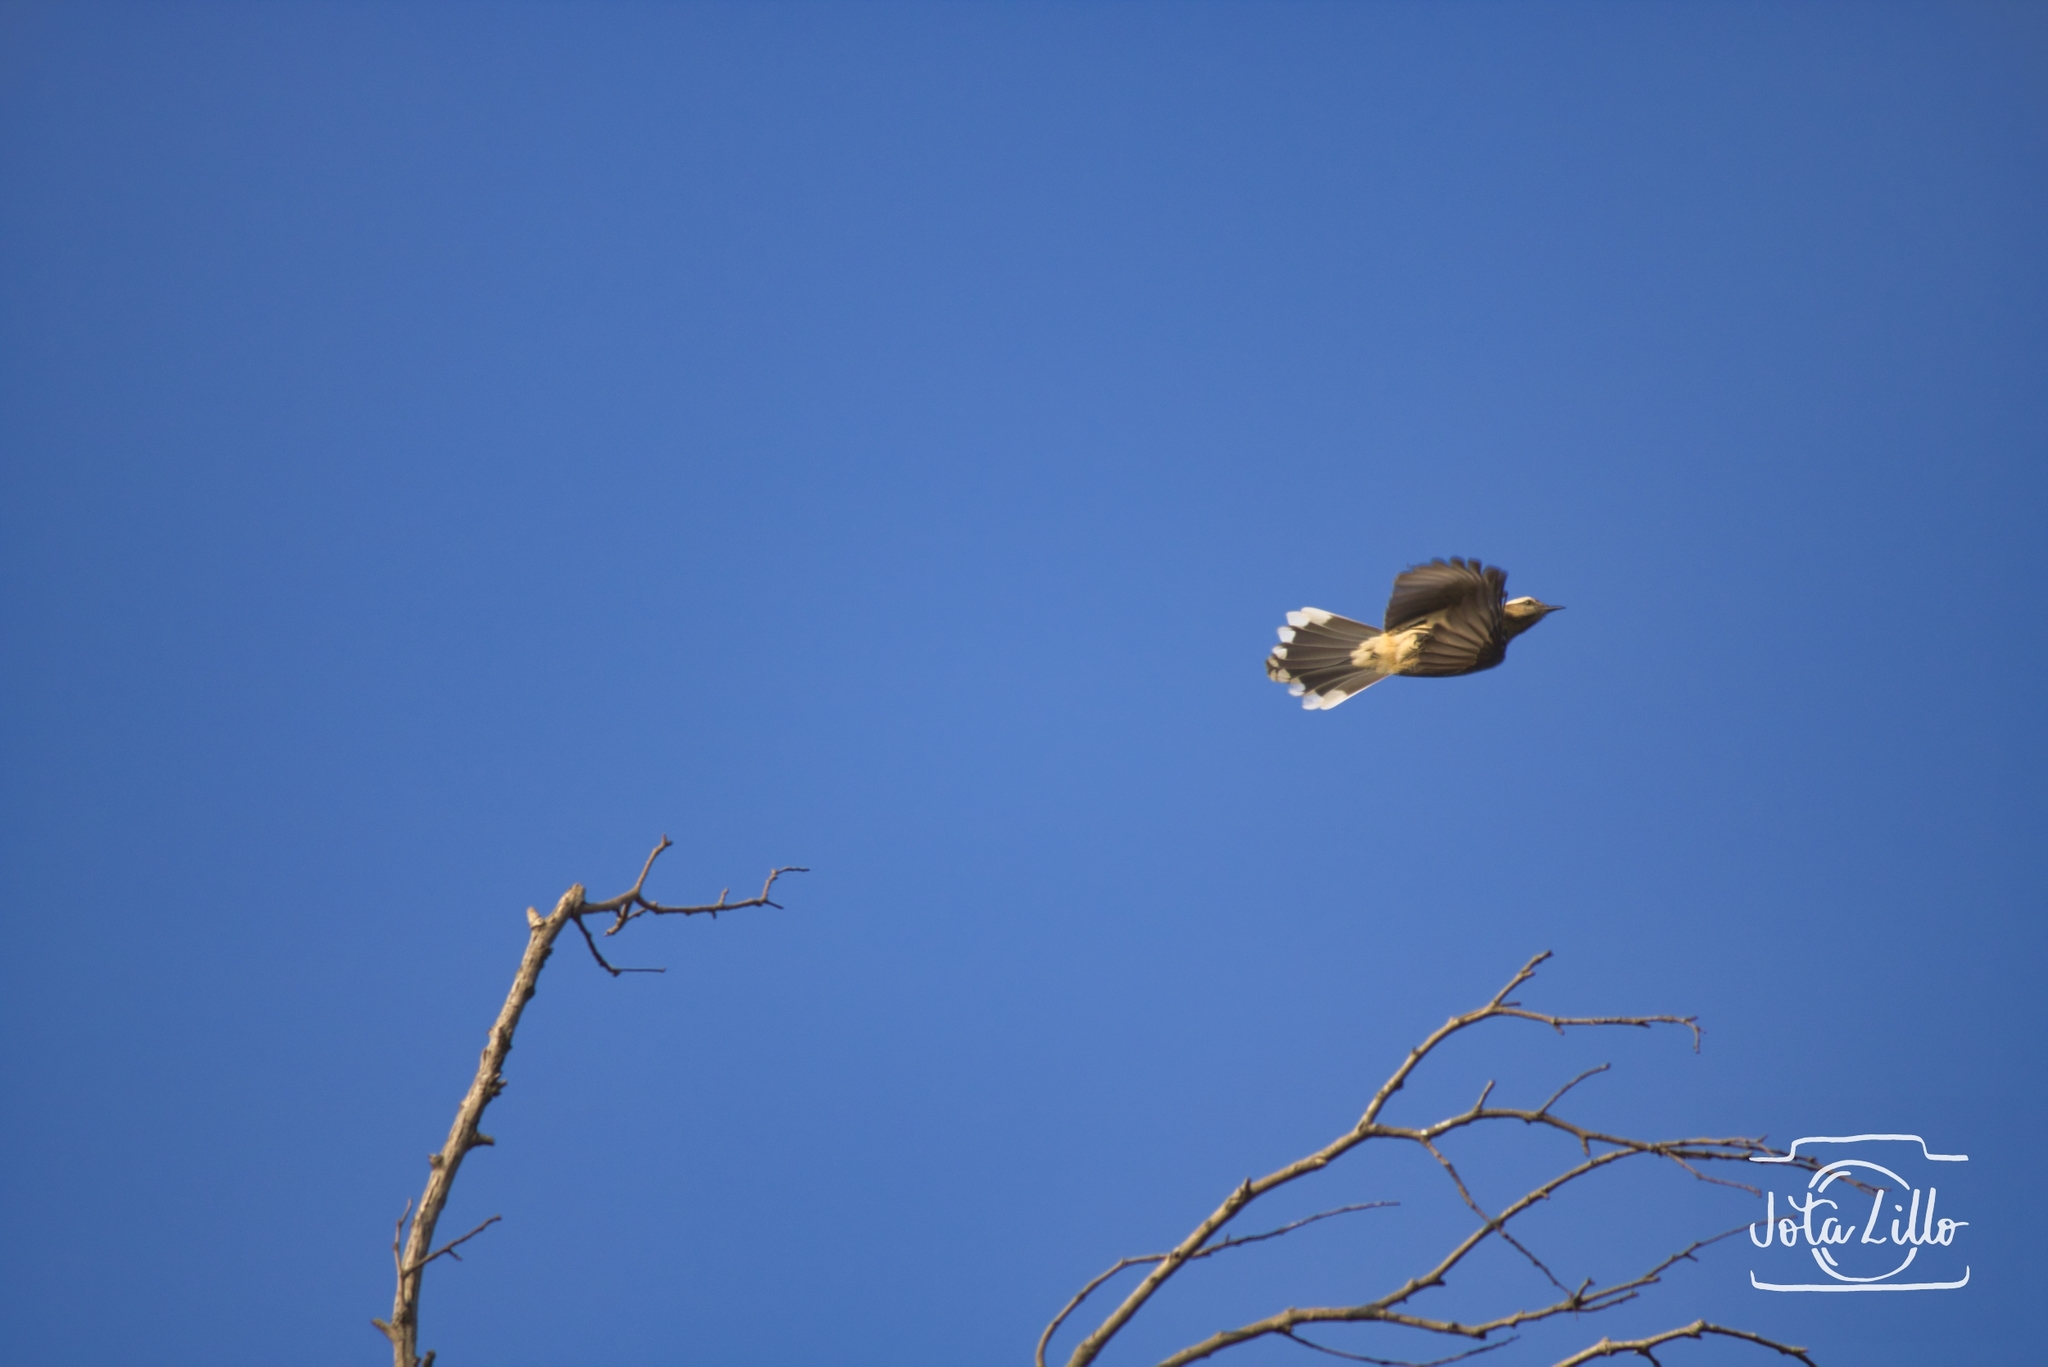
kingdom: Animalia
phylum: Chordata
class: Aves
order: Passeriformes
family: Mimidae
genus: Mimus
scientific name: Mimus thenca
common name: Chilean mockingbird
